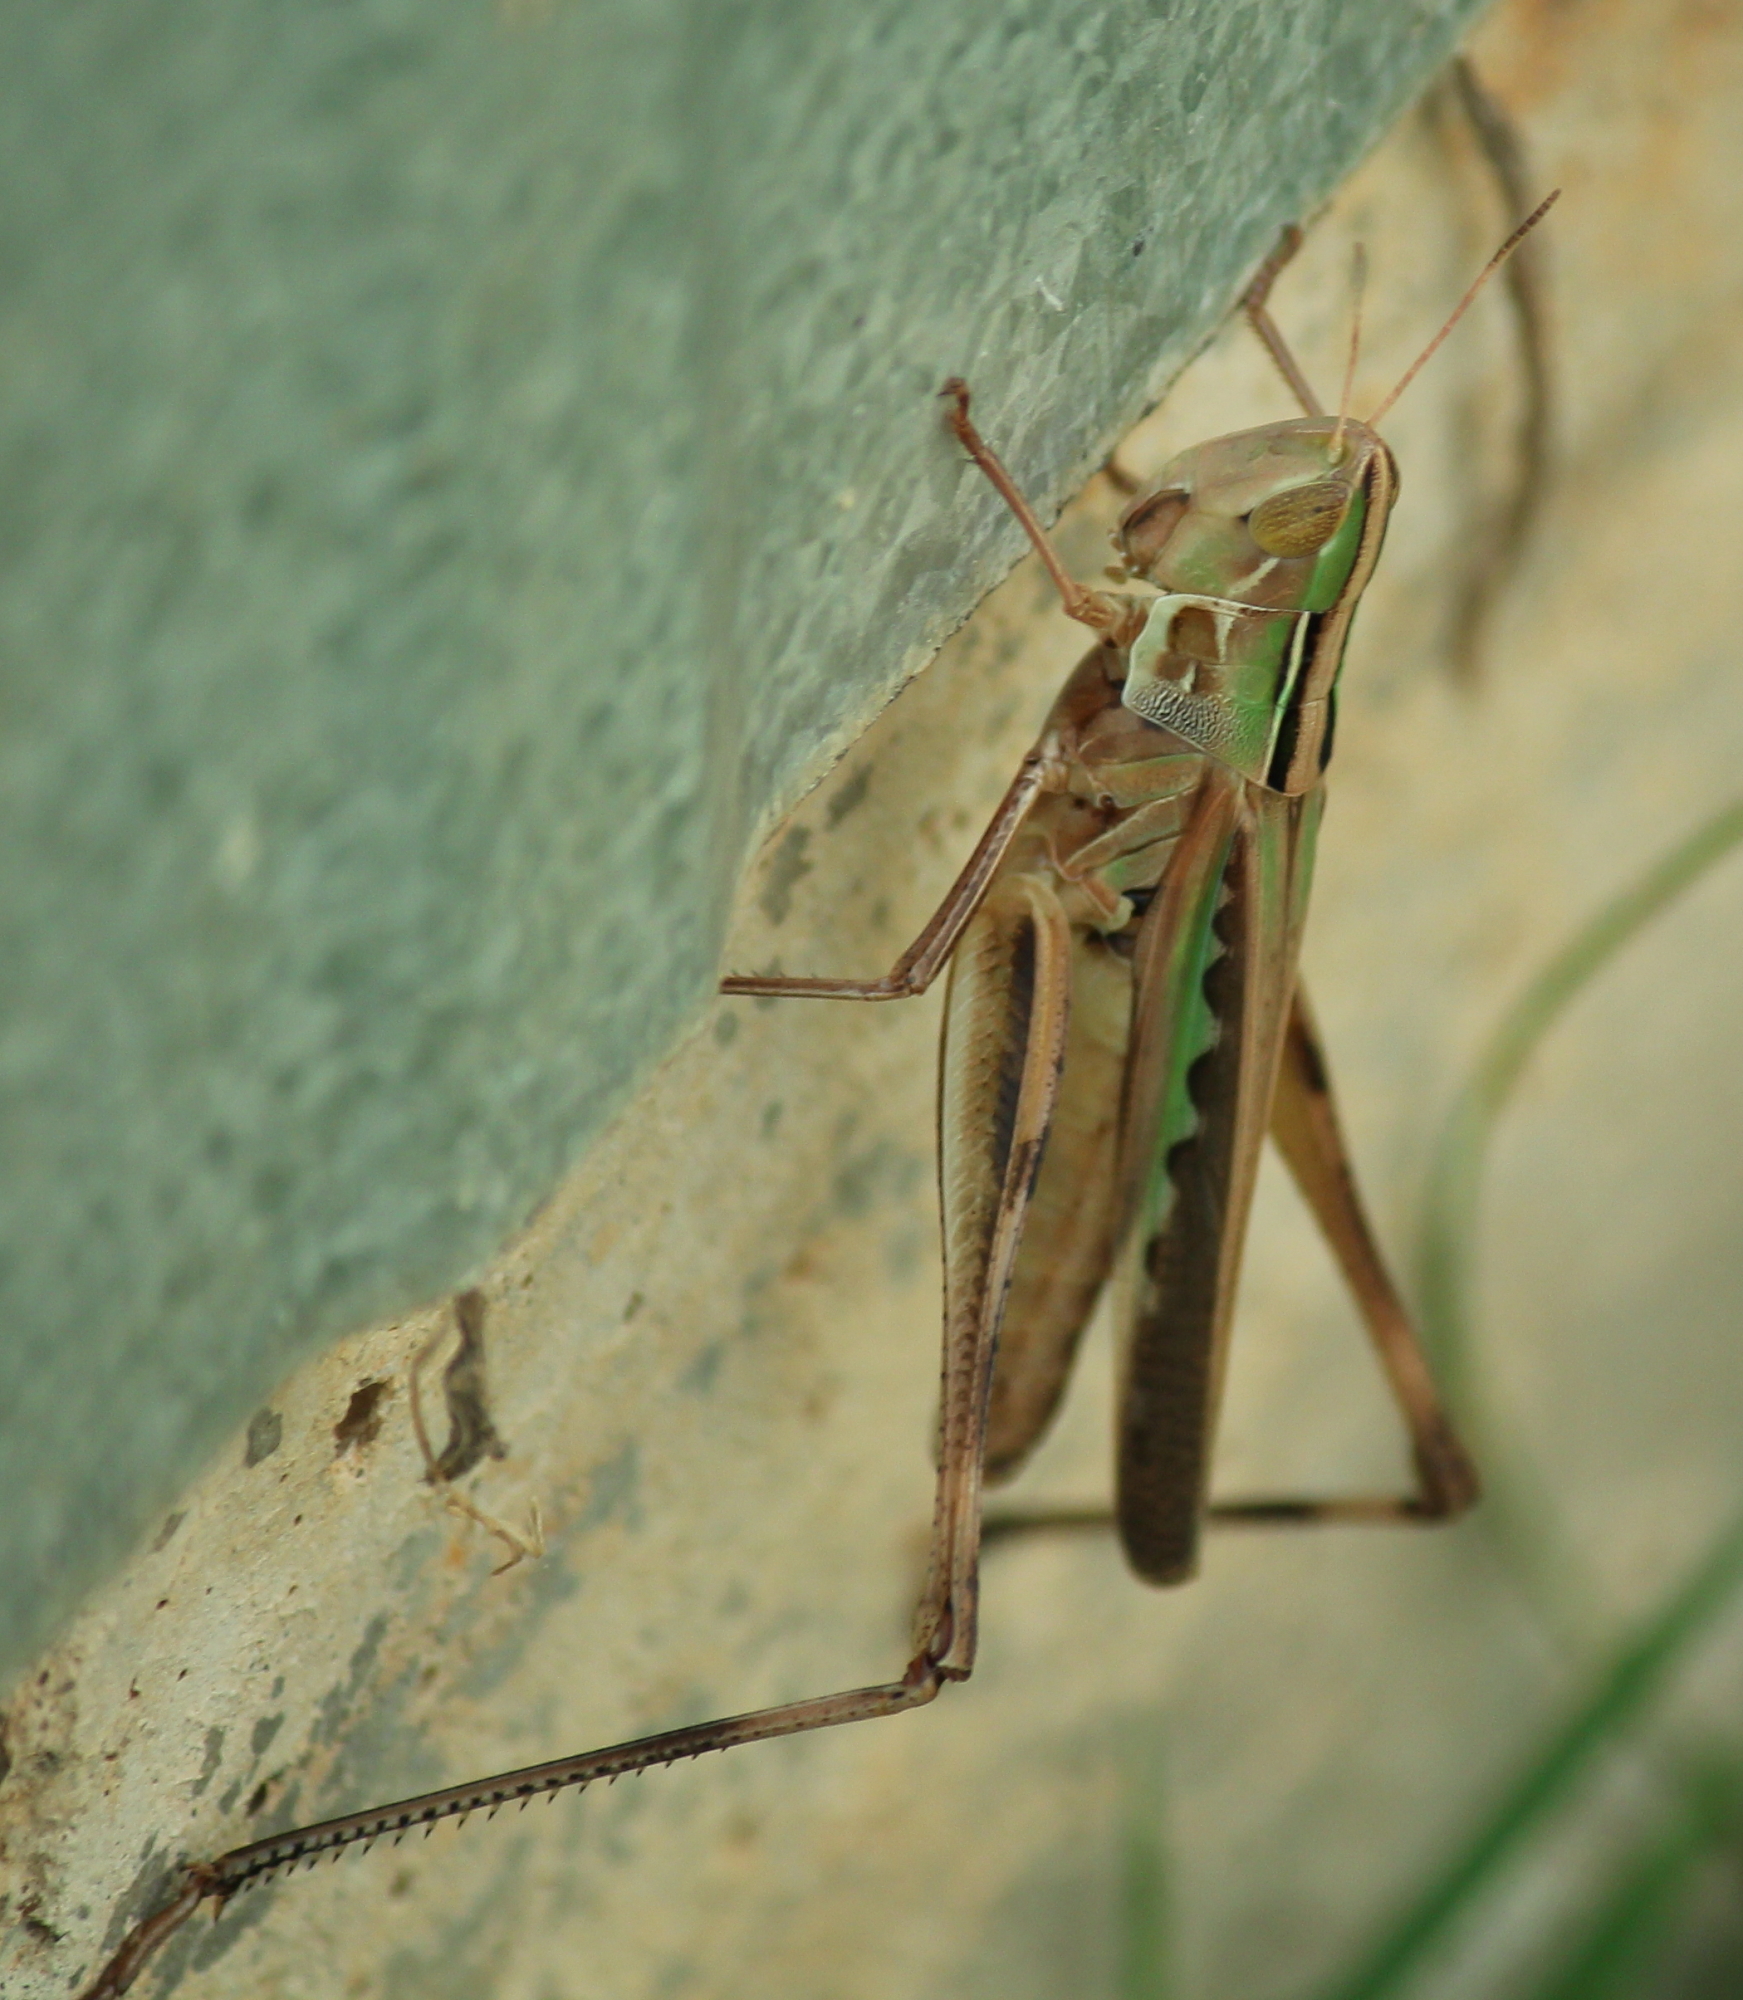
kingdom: Animalia
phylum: Arthropoda
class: Insecta
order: Orthoptera
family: Acrididae
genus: Syrbula
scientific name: Syrbula admirabilis
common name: Handsome grasshopper
